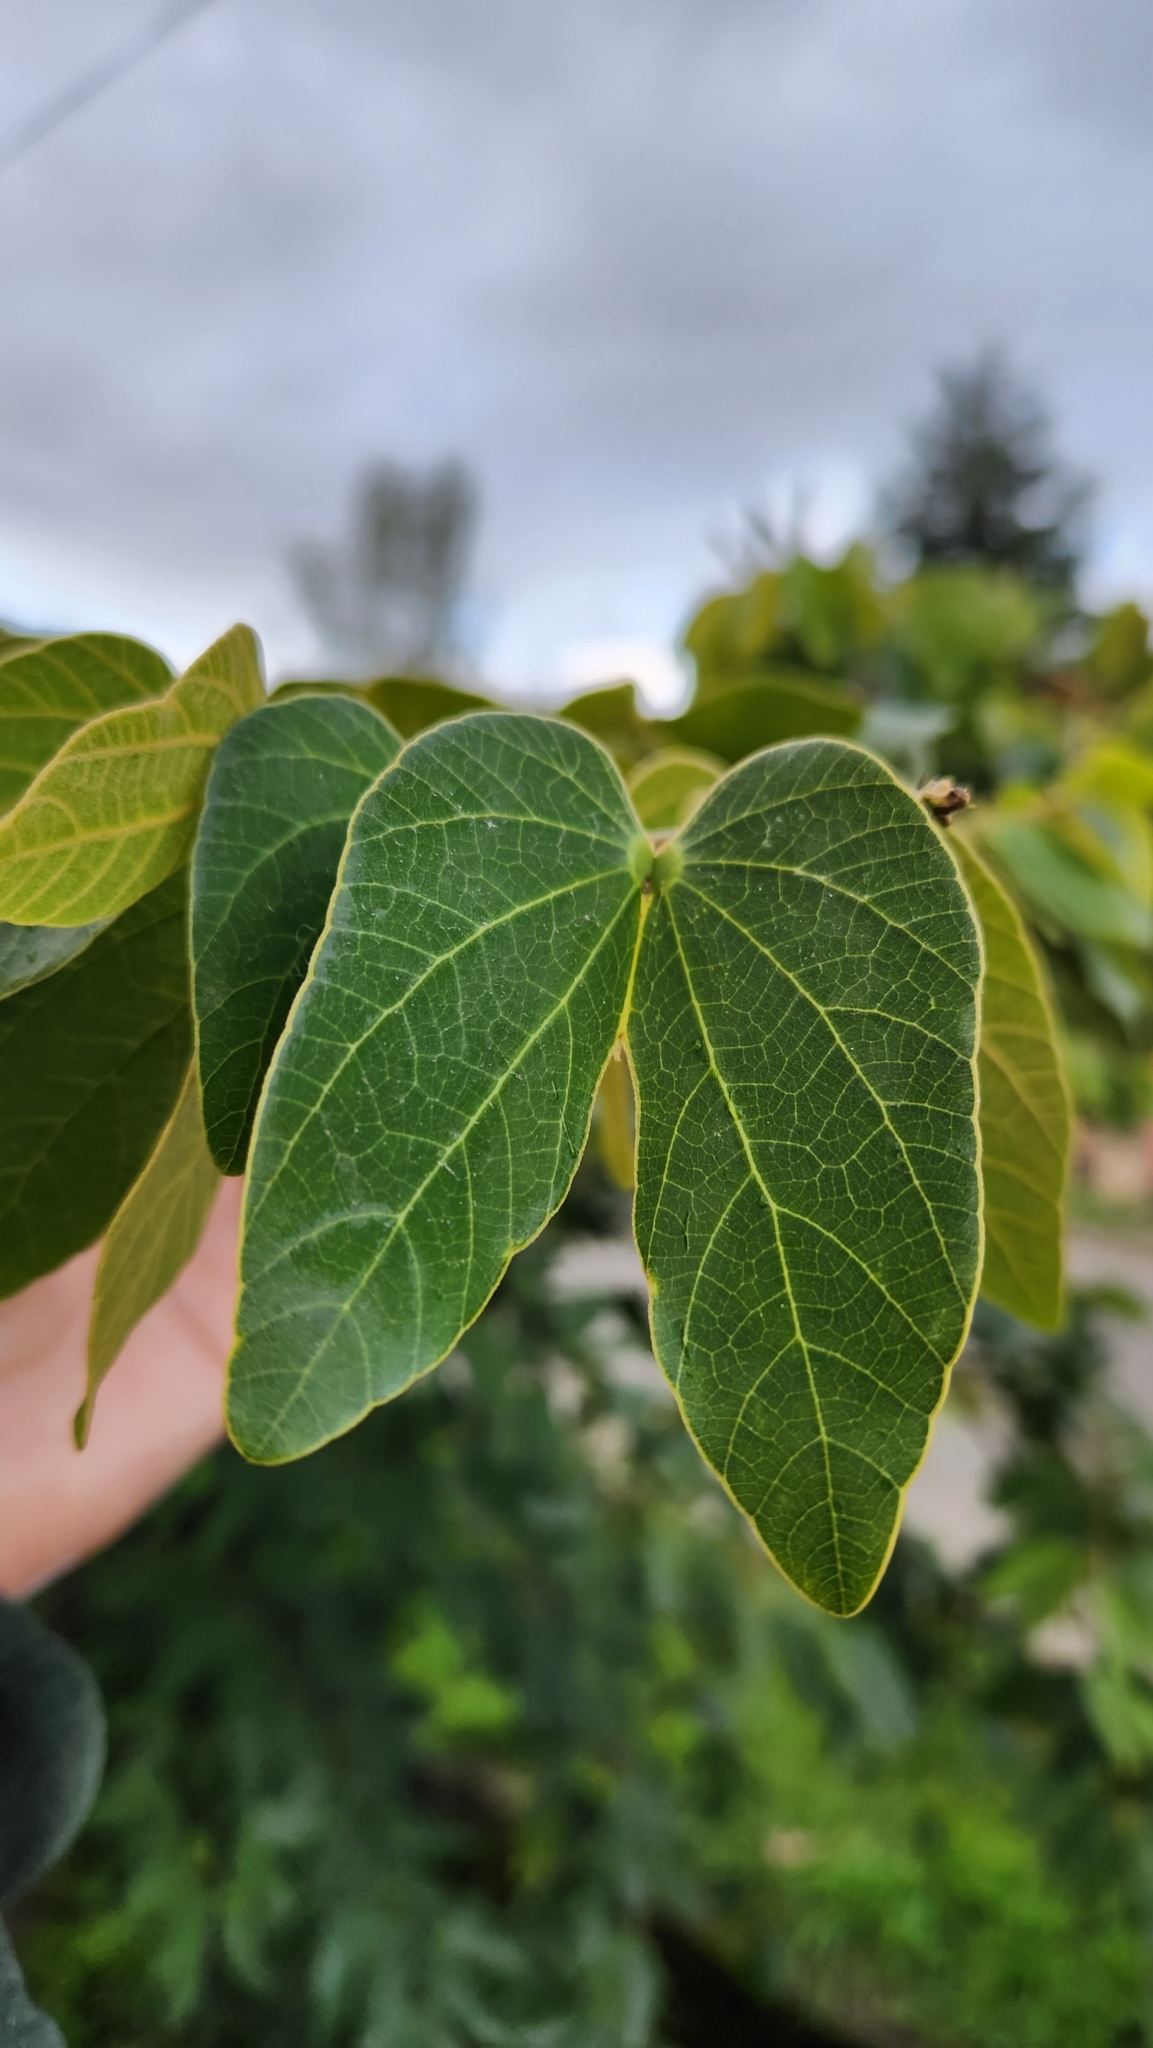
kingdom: Plantae
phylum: Tracheophyta
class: Magnoliopsida
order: Fabales
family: Fabaceae
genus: Bauhinia
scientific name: Bauhinia forficata
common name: Orchid tree
